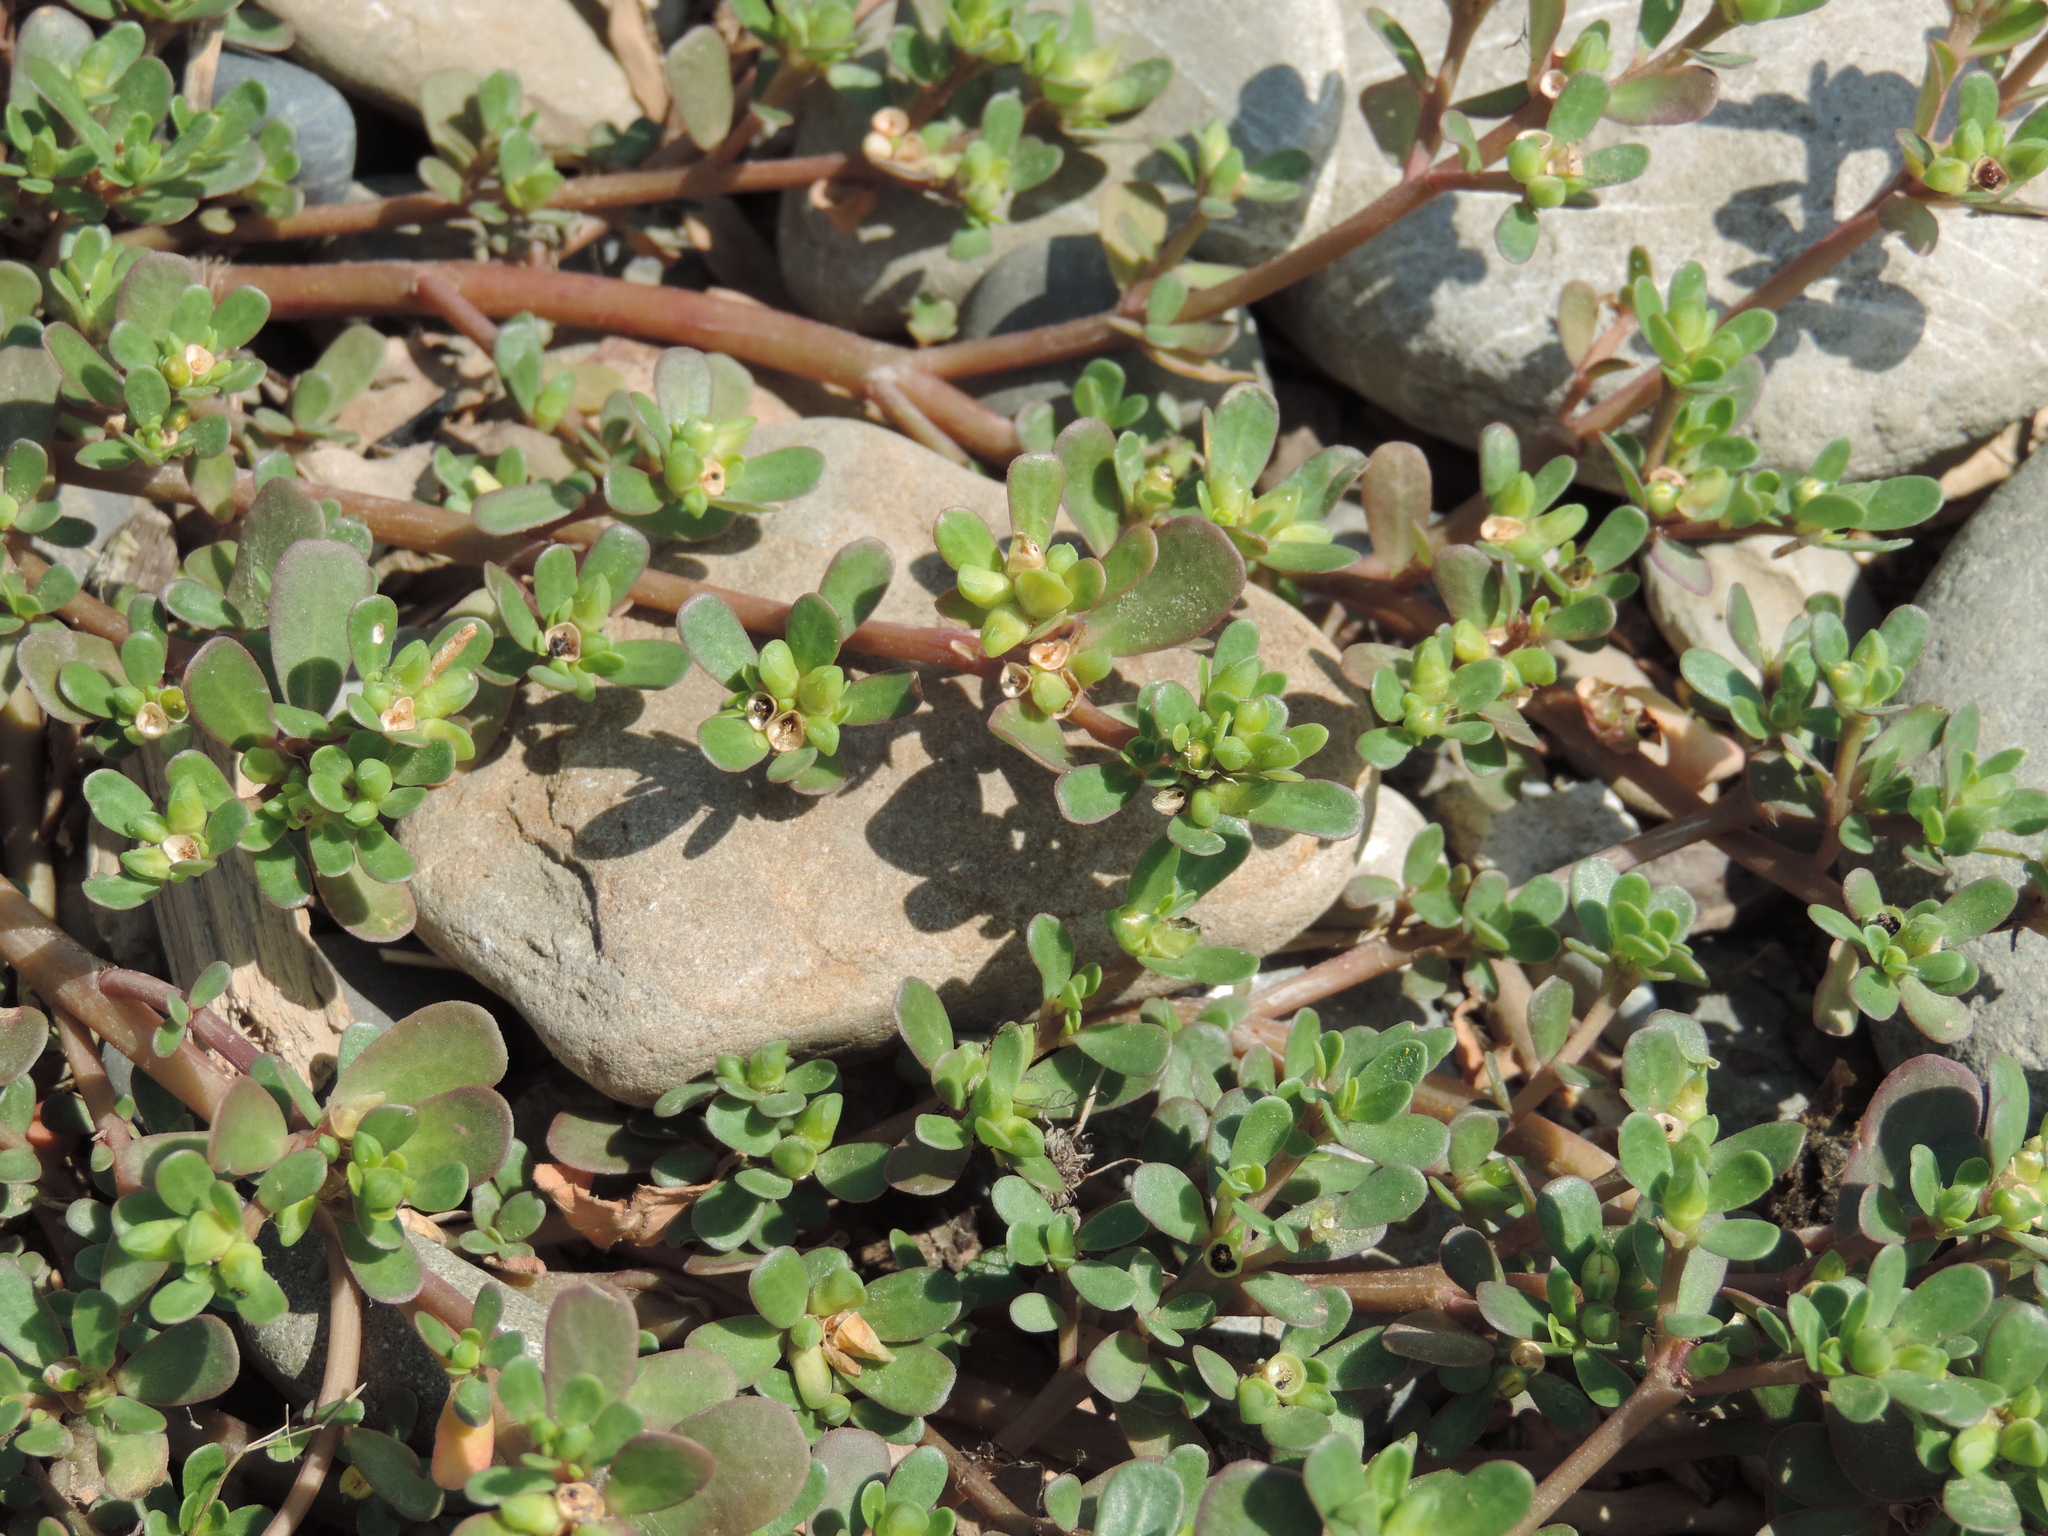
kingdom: Plantae
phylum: Tracheophyta
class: Magnoliopsida
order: Caryophyllales
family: Portulacaceae
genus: Portulaca
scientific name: Portulaca oleracea
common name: Common purslane
